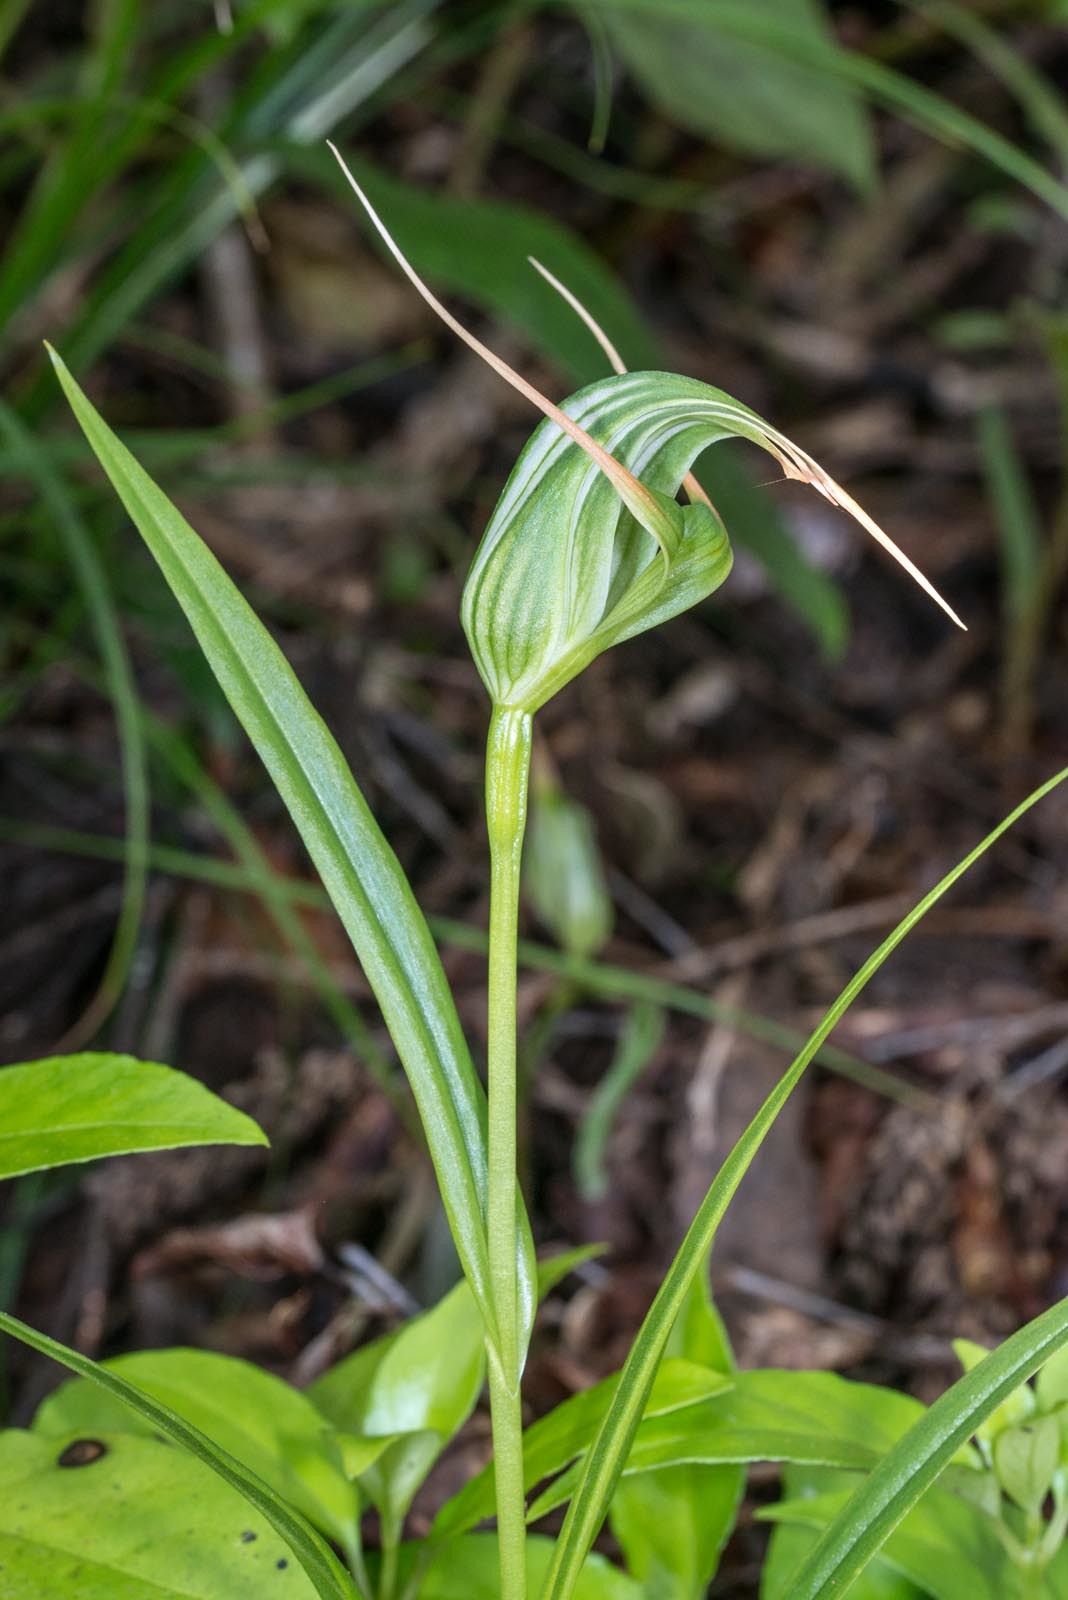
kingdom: Plantae
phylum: Tracheophyta
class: Liliopsida
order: Asparagales
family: Orchidaceae
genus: Pterostylis
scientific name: Pterostylis banksii
